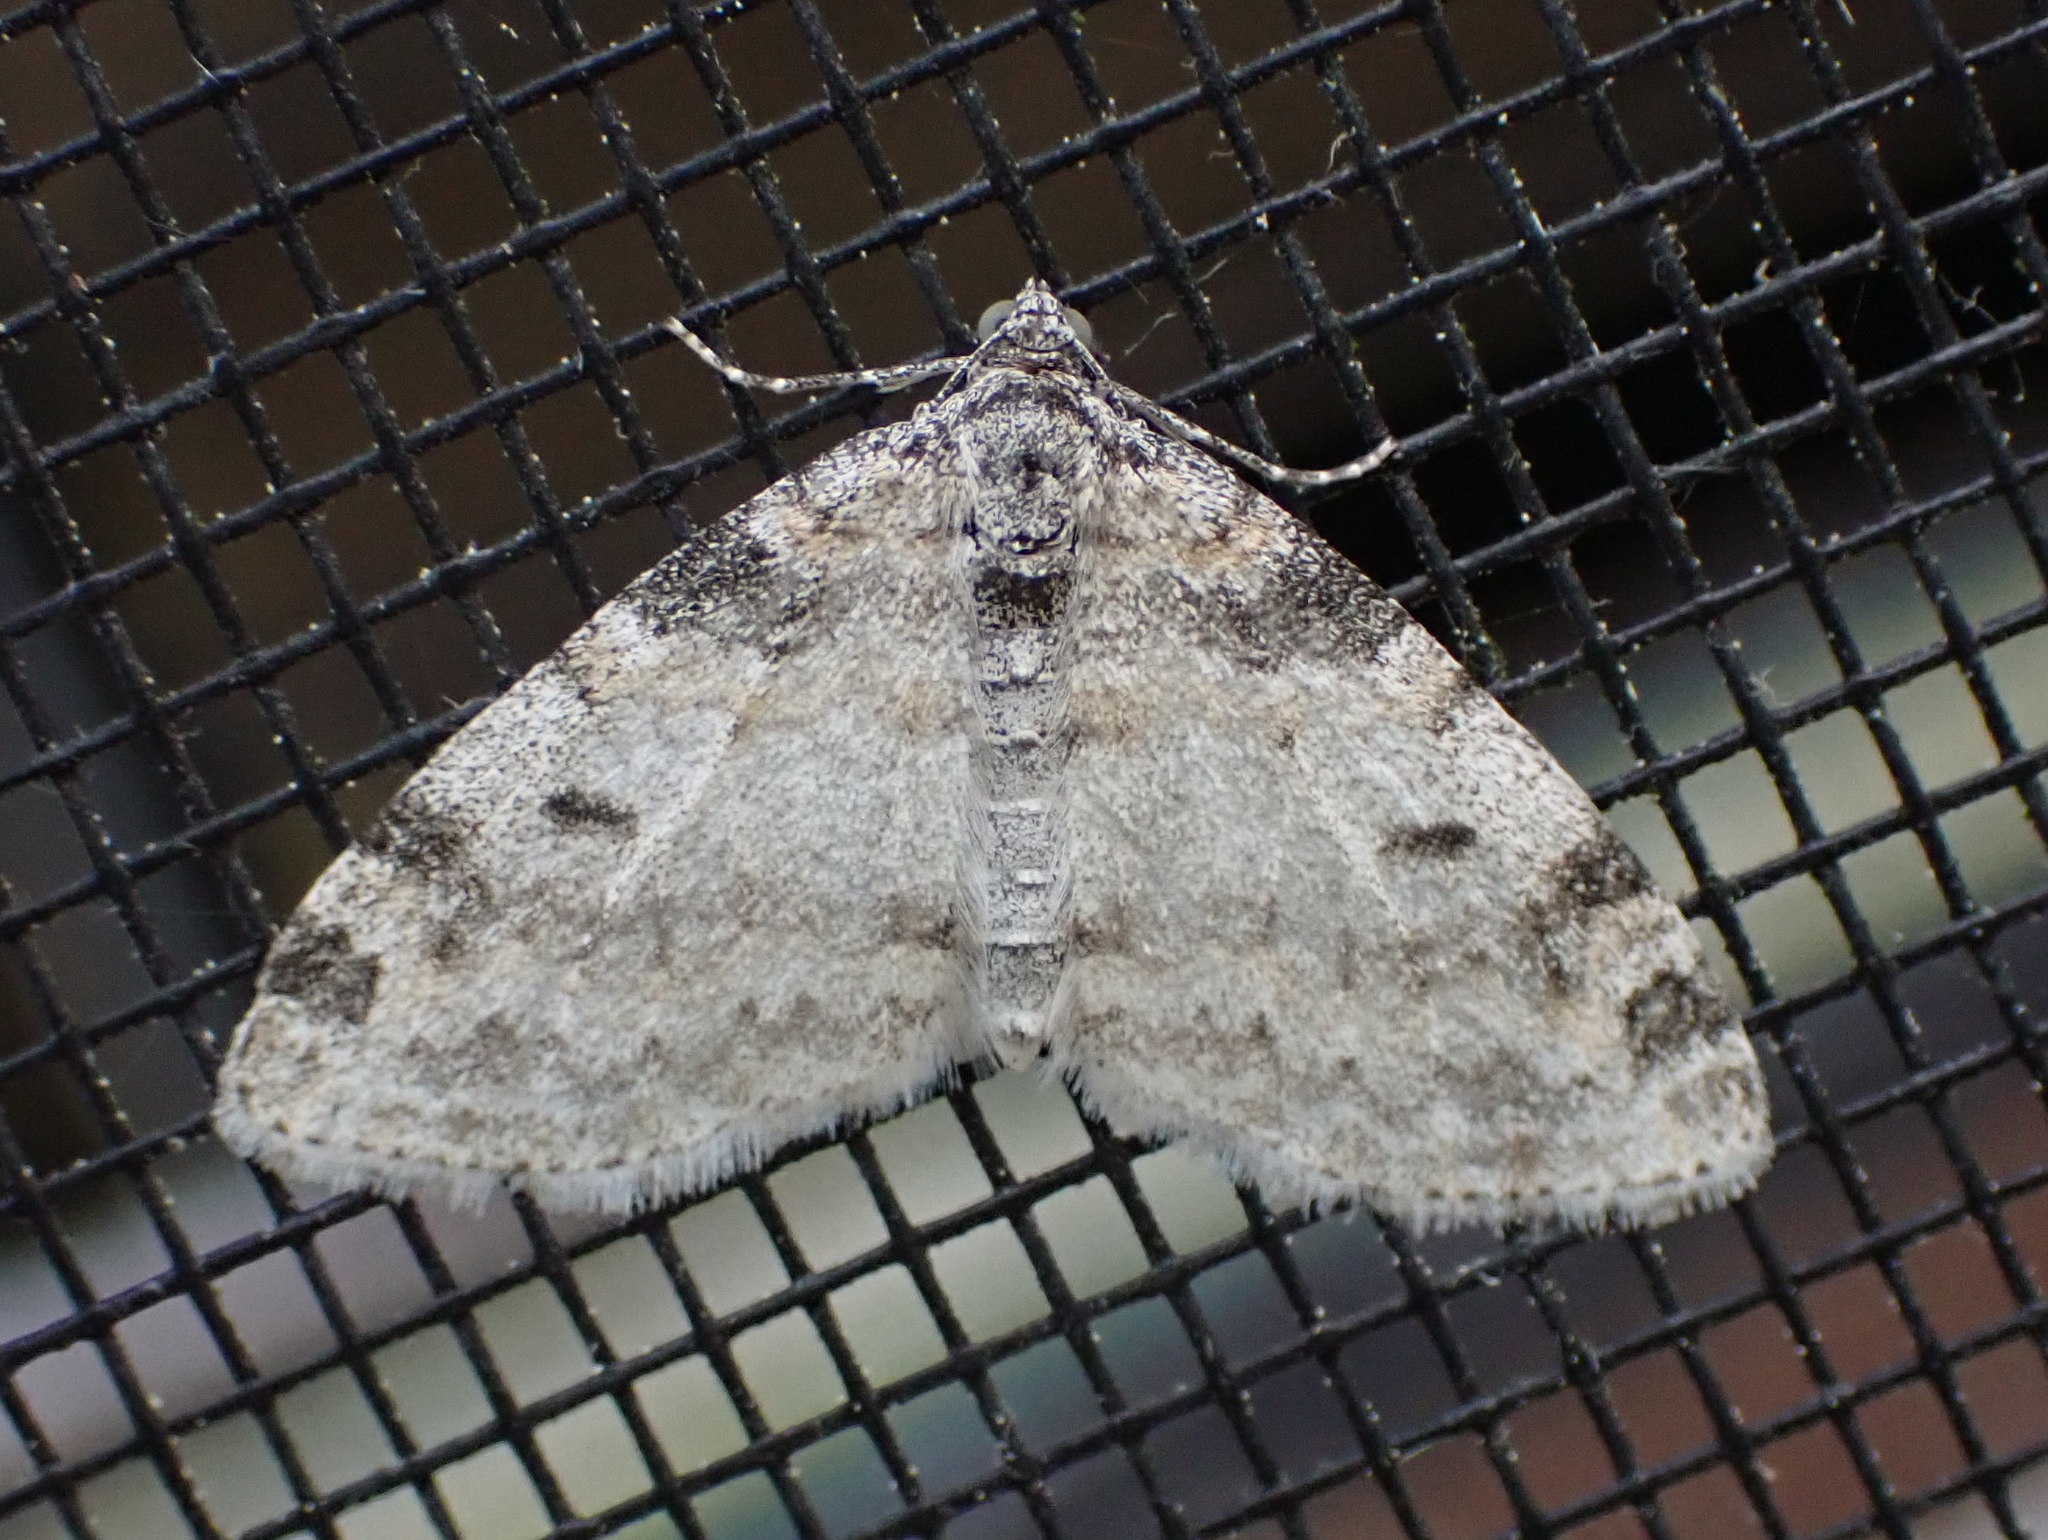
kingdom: Animalia
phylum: Arthropoda
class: Insecta
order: Lepidoptera
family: Geometridae
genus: Lobophora
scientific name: Lobophora nivigerata
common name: Powdered bigwing
